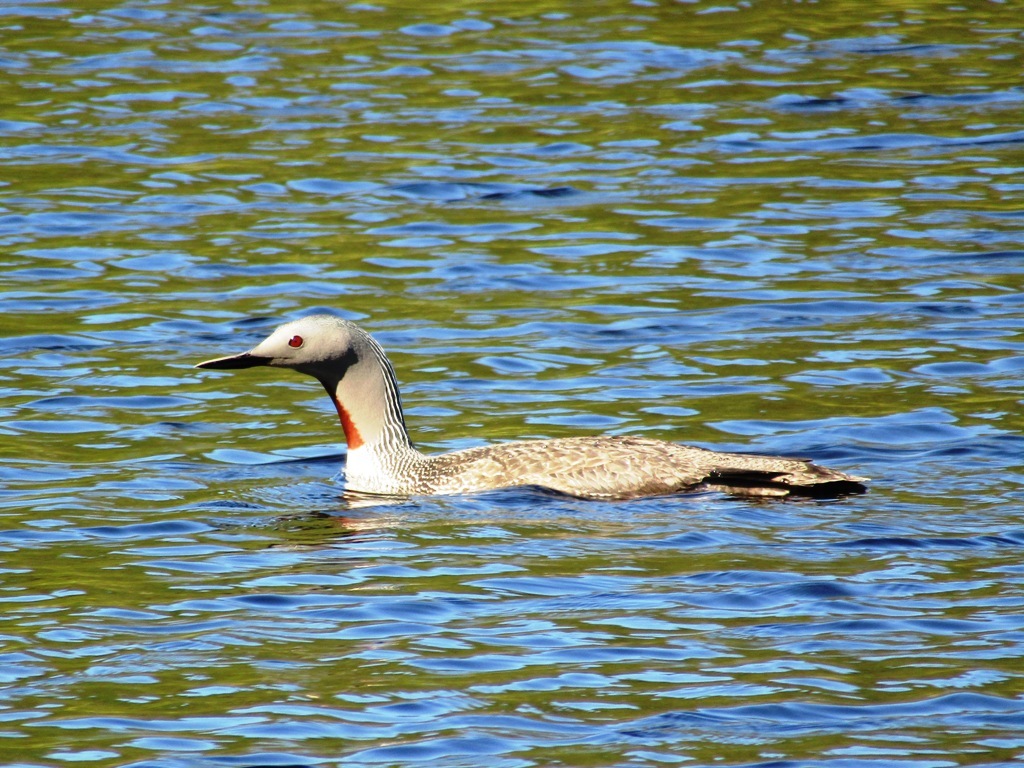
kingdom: Animalia
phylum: Chordata
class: Aves
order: Gaviiformes
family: Gaviidae
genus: Gavia
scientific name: Gavia stellata
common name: Red-throated loon
